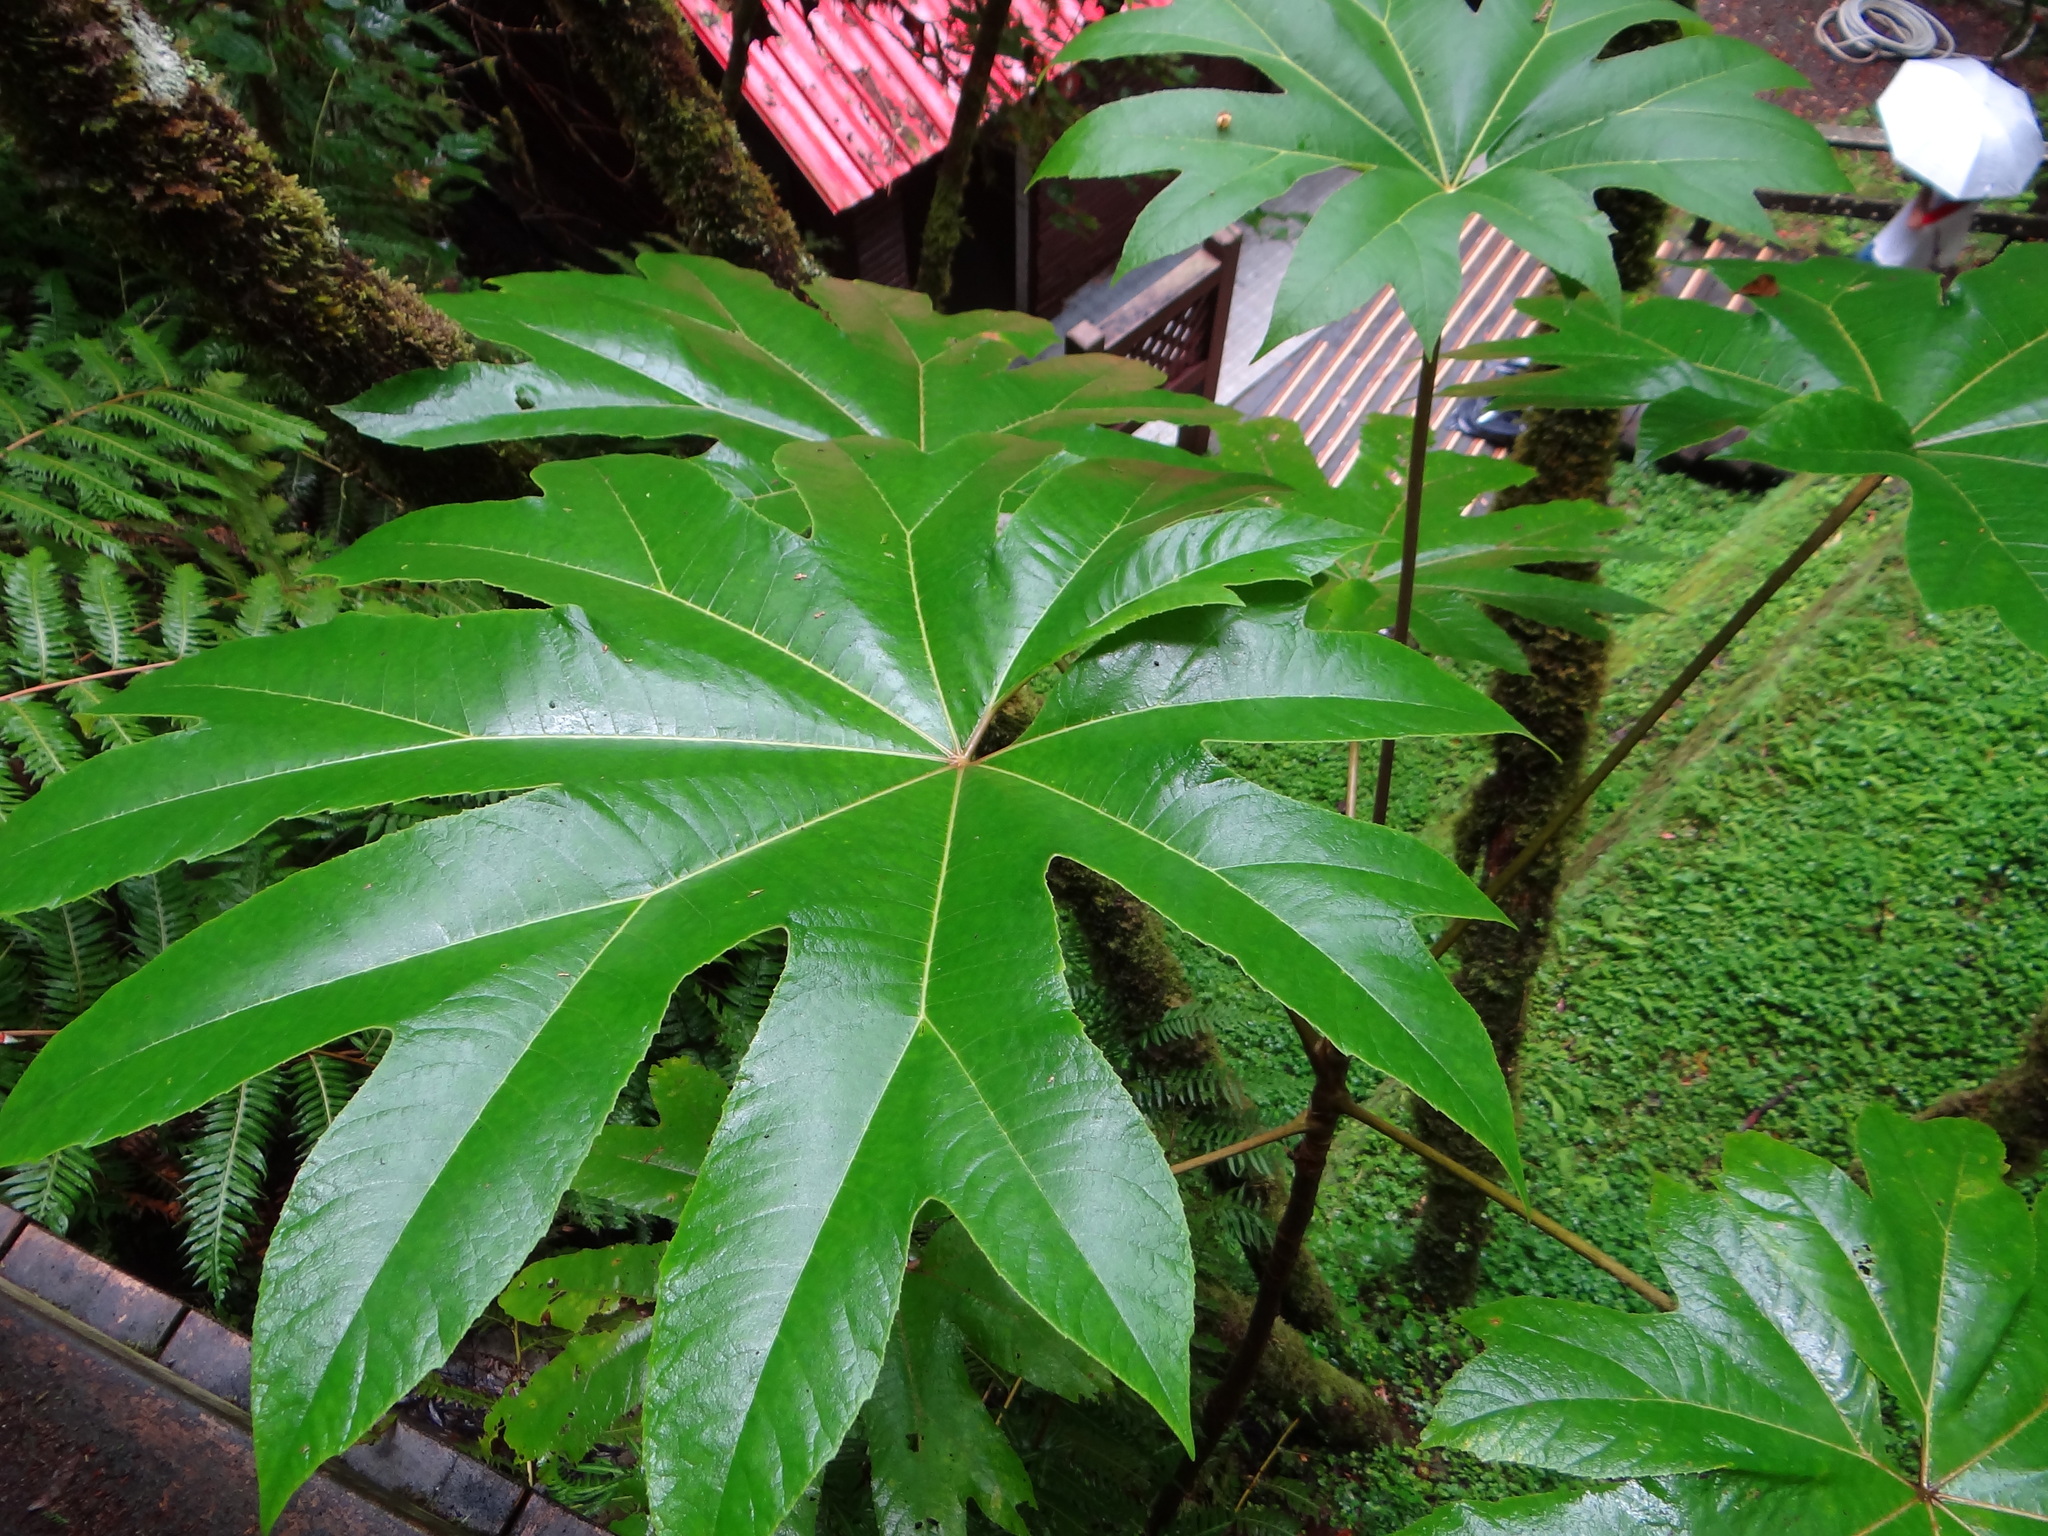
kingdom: Plantae
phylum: Tracheophyta
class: Magnoliopsida
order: Apiales
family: Araliaceae
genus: Tetrapanax
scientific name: Tetrapanax papyrifer
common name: Rice-paper plant
